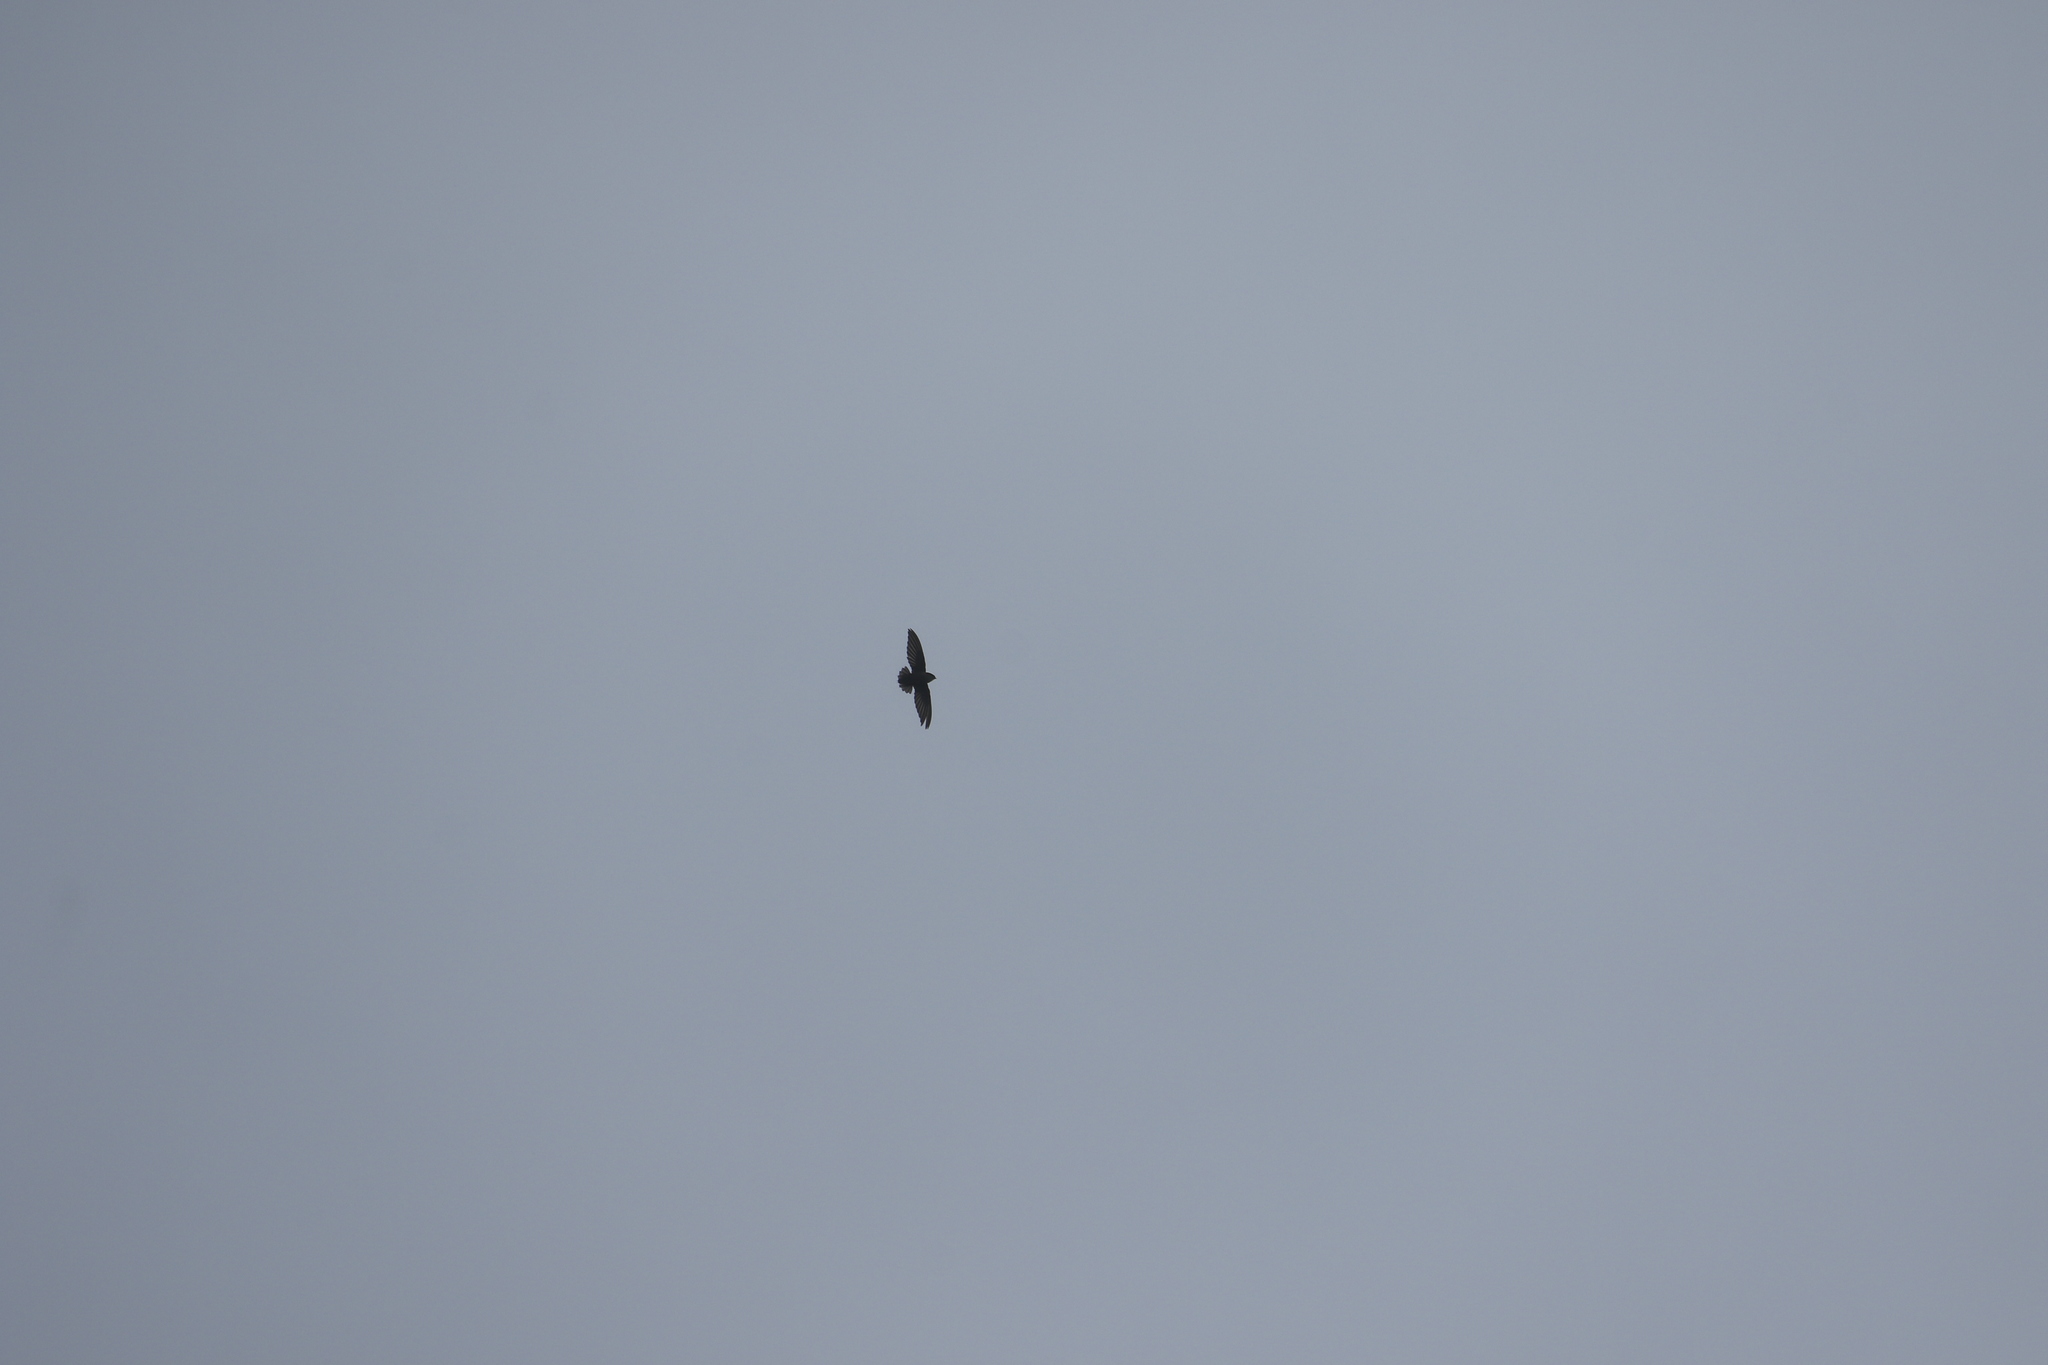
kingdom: Animalia
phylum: Chordata
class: Aves
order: Apodiformes
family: Apodidae
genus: Chaetura
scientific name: Chaetura pelagica
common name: Chimney swift
